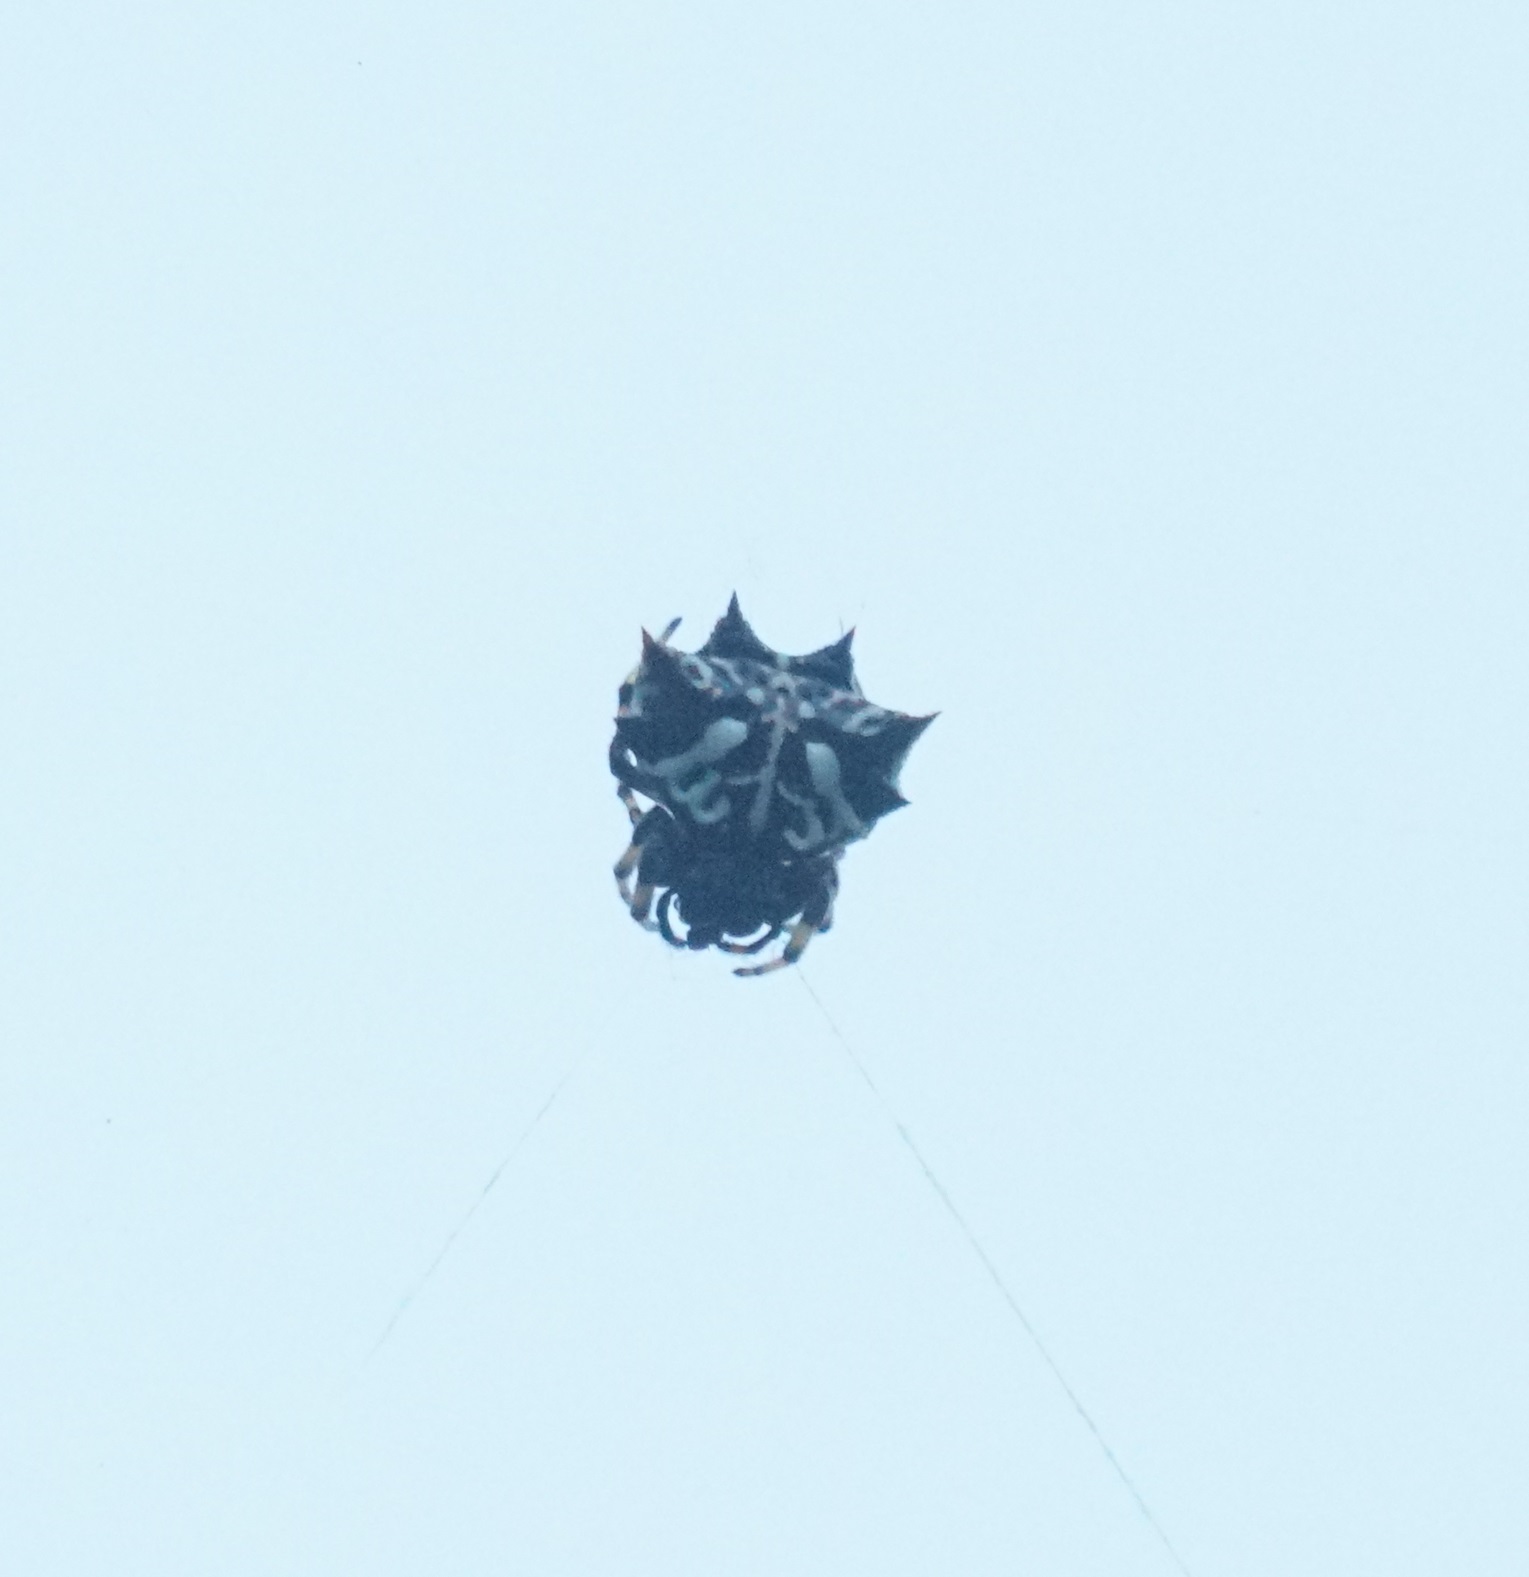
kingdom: Animalia
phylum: Arthropoda
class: Arachnida
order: Araneae
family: Araneidae
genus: Gasteracantha
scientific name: Gasteracantha sacerdotalis
